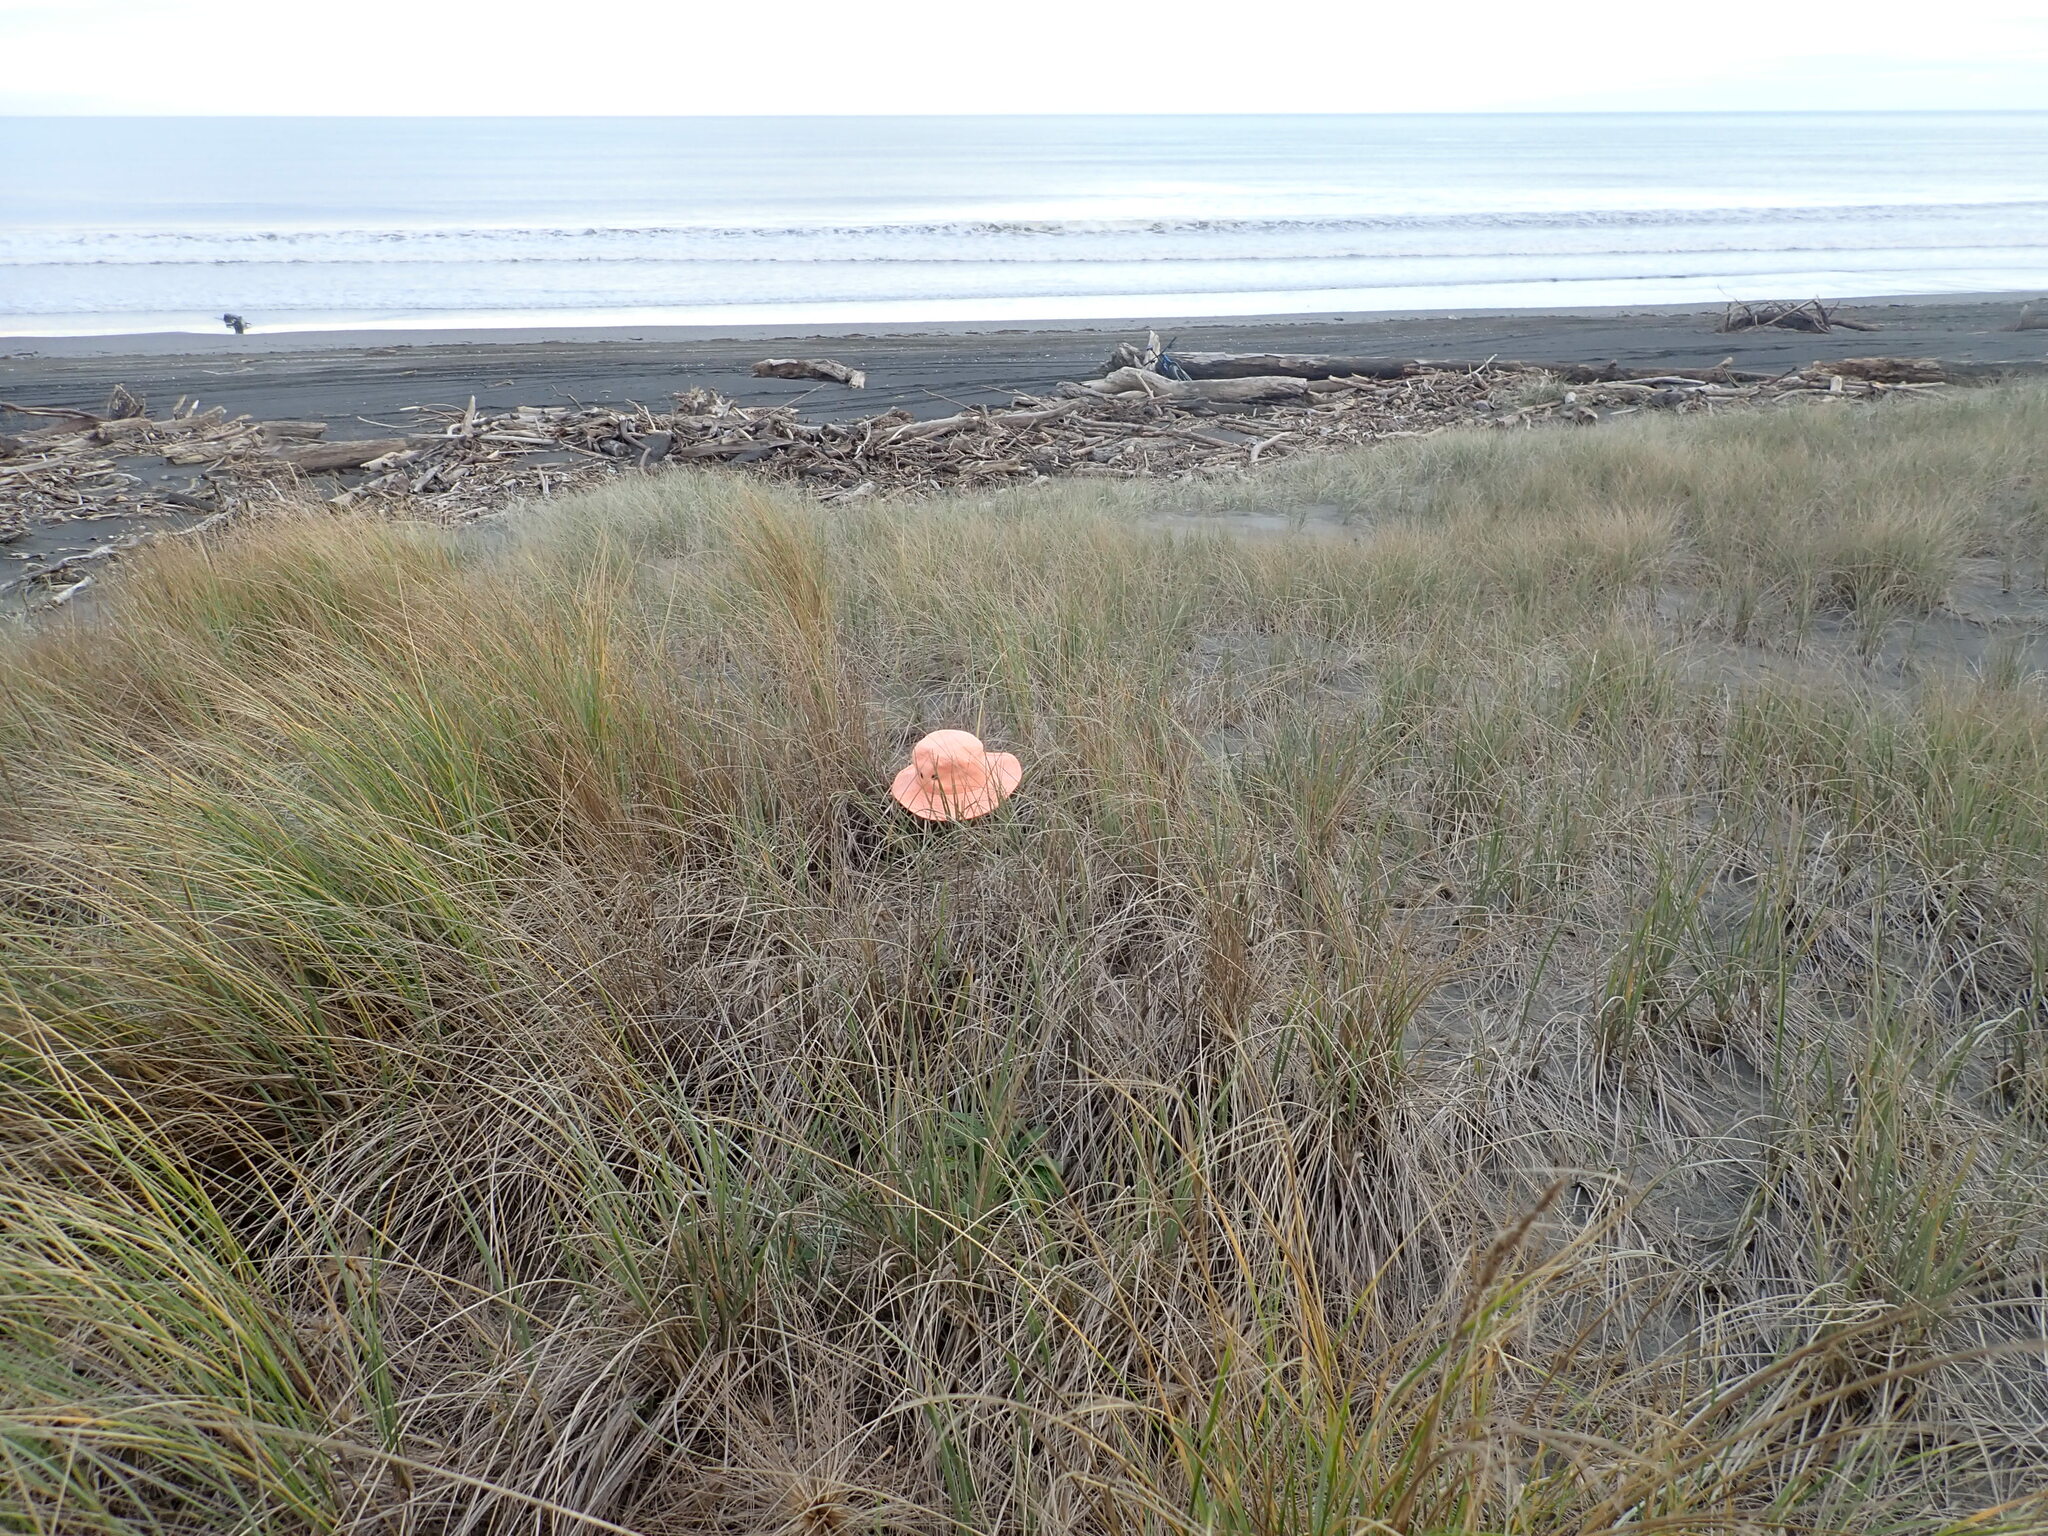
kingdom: Animalia
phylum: Arthropoda
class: Arachnida
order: Araneae
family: Theridiidae
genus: Latrodectus
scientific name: Latrodectus katipo
